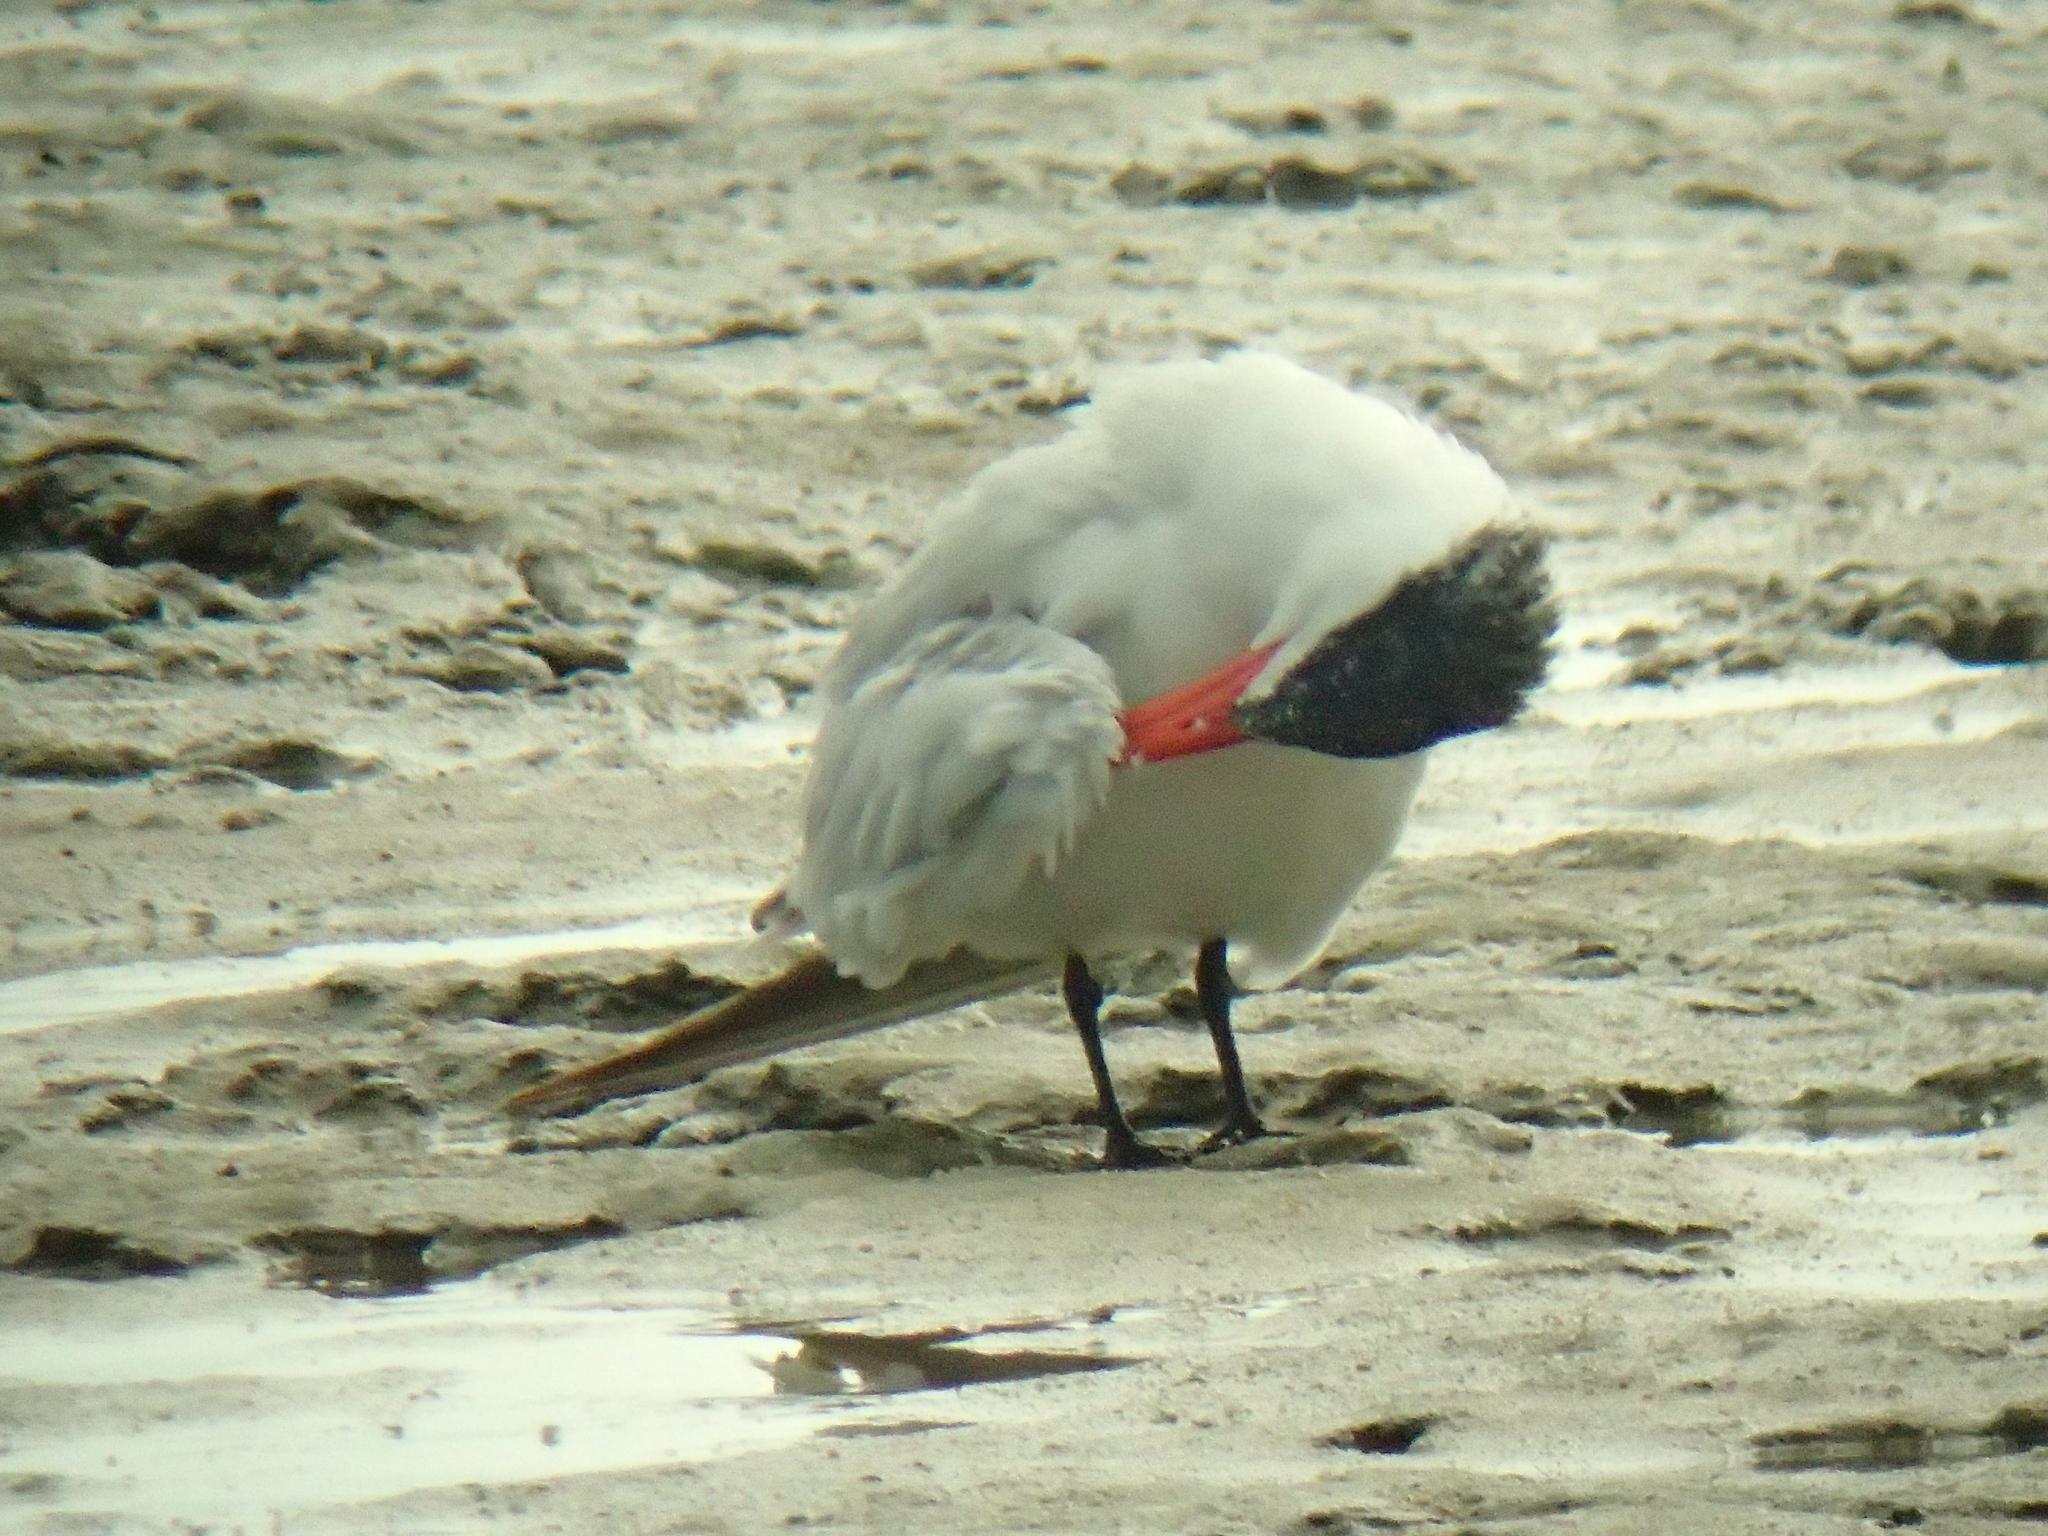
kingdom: Animalia
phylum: Chordata
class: Aves
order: Charadriiformes
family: Laridae
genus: Hydroprogne
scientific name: Hydroprogne caspia
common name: Caspian tern
